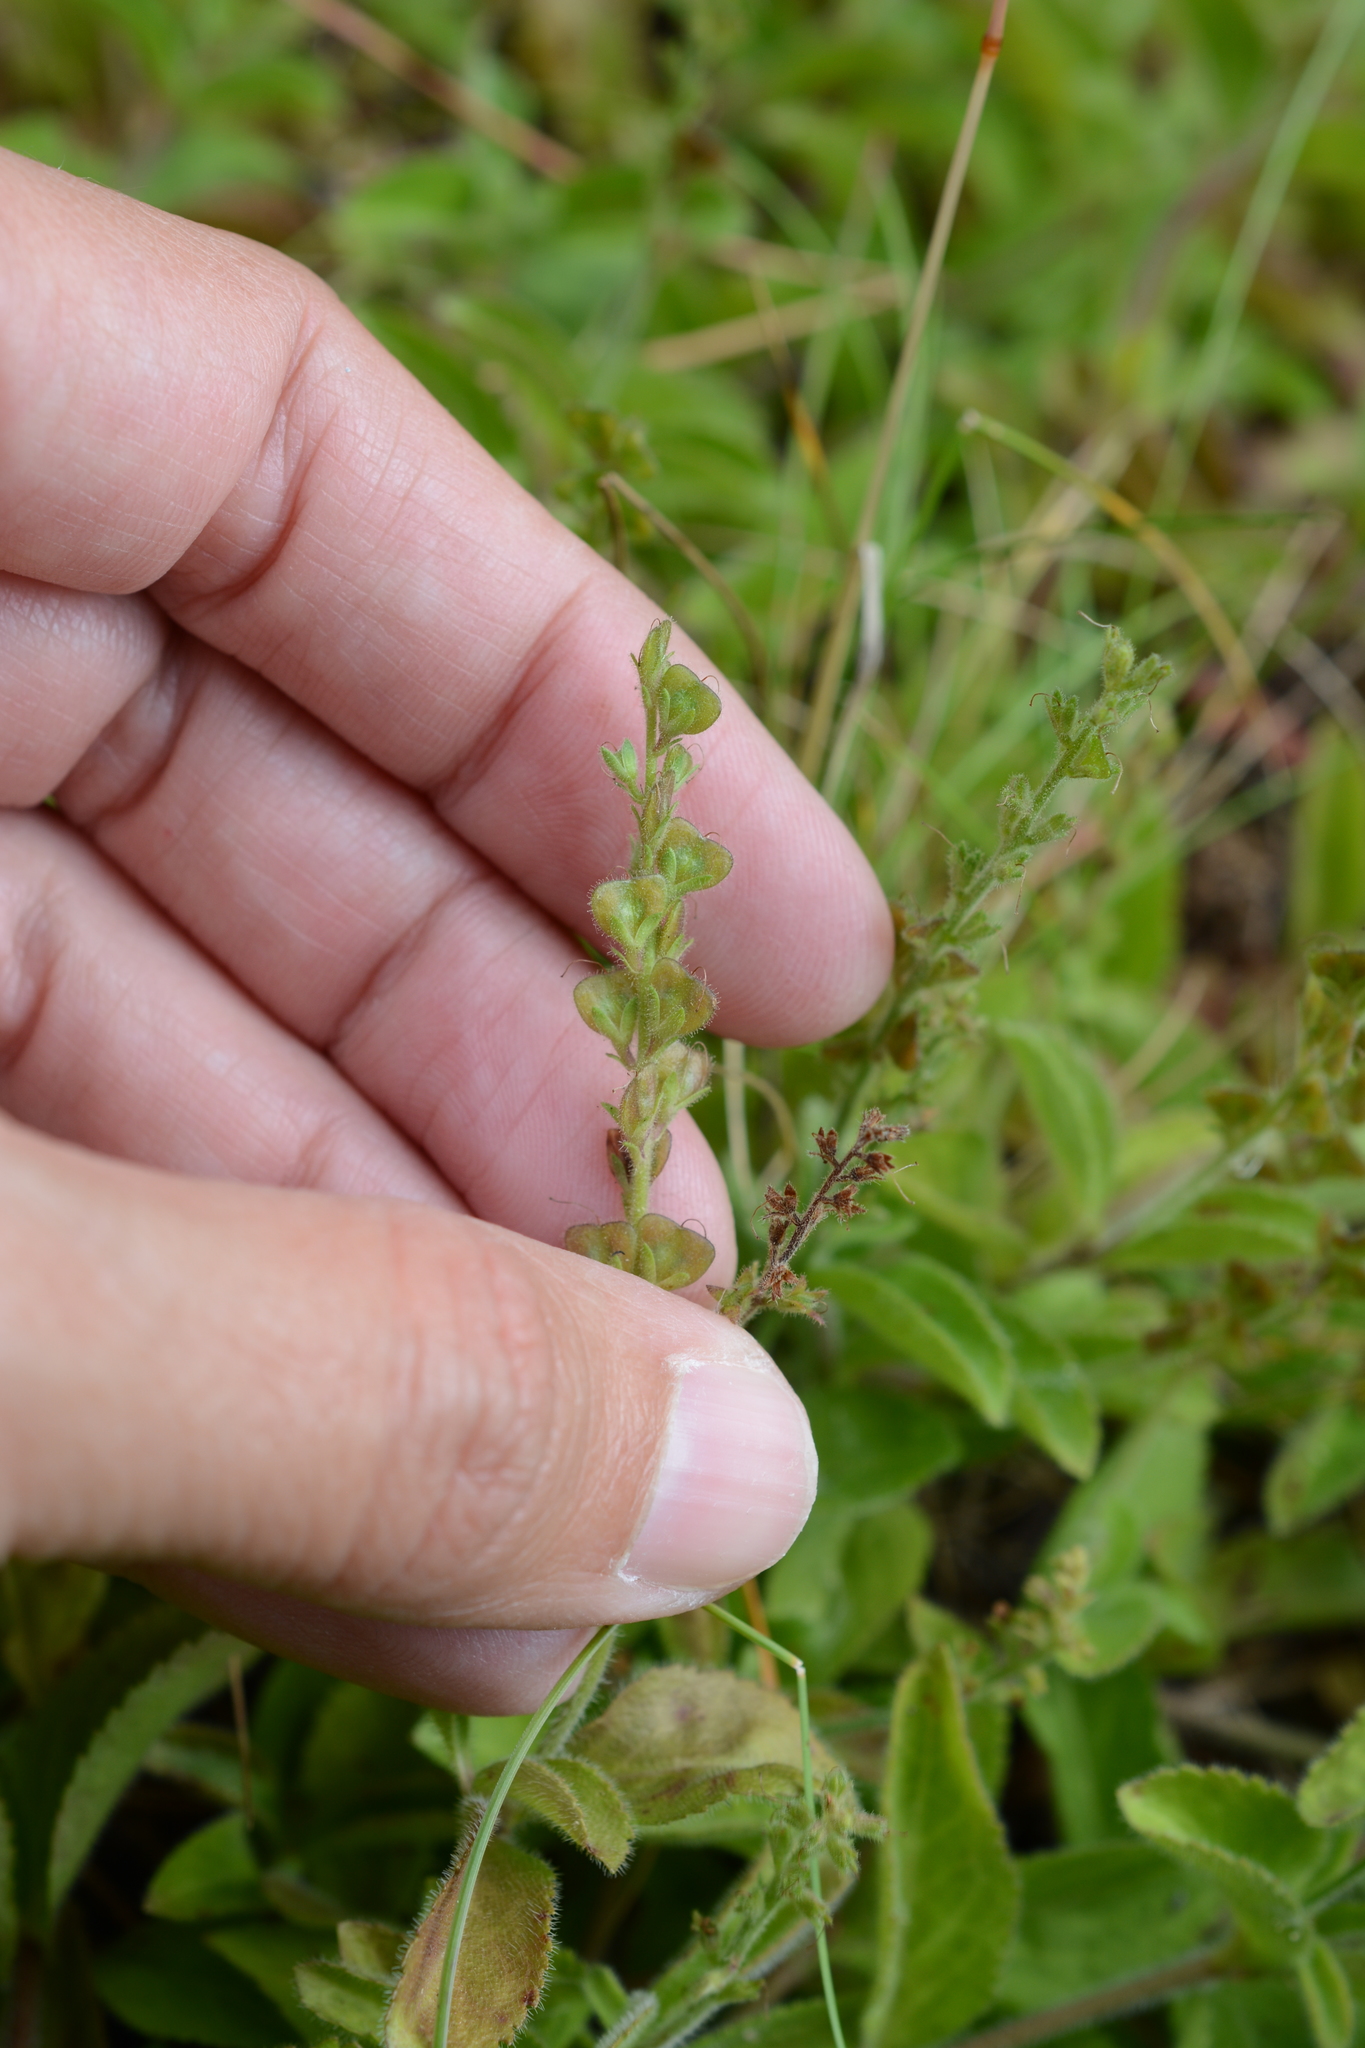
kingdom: Plantae
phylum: Tracheophyta
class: Magnoliopsida
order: Lamiales
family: Plantaginaceae
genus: Veronica
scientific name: Veronica officinalis
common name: Common speedwell
